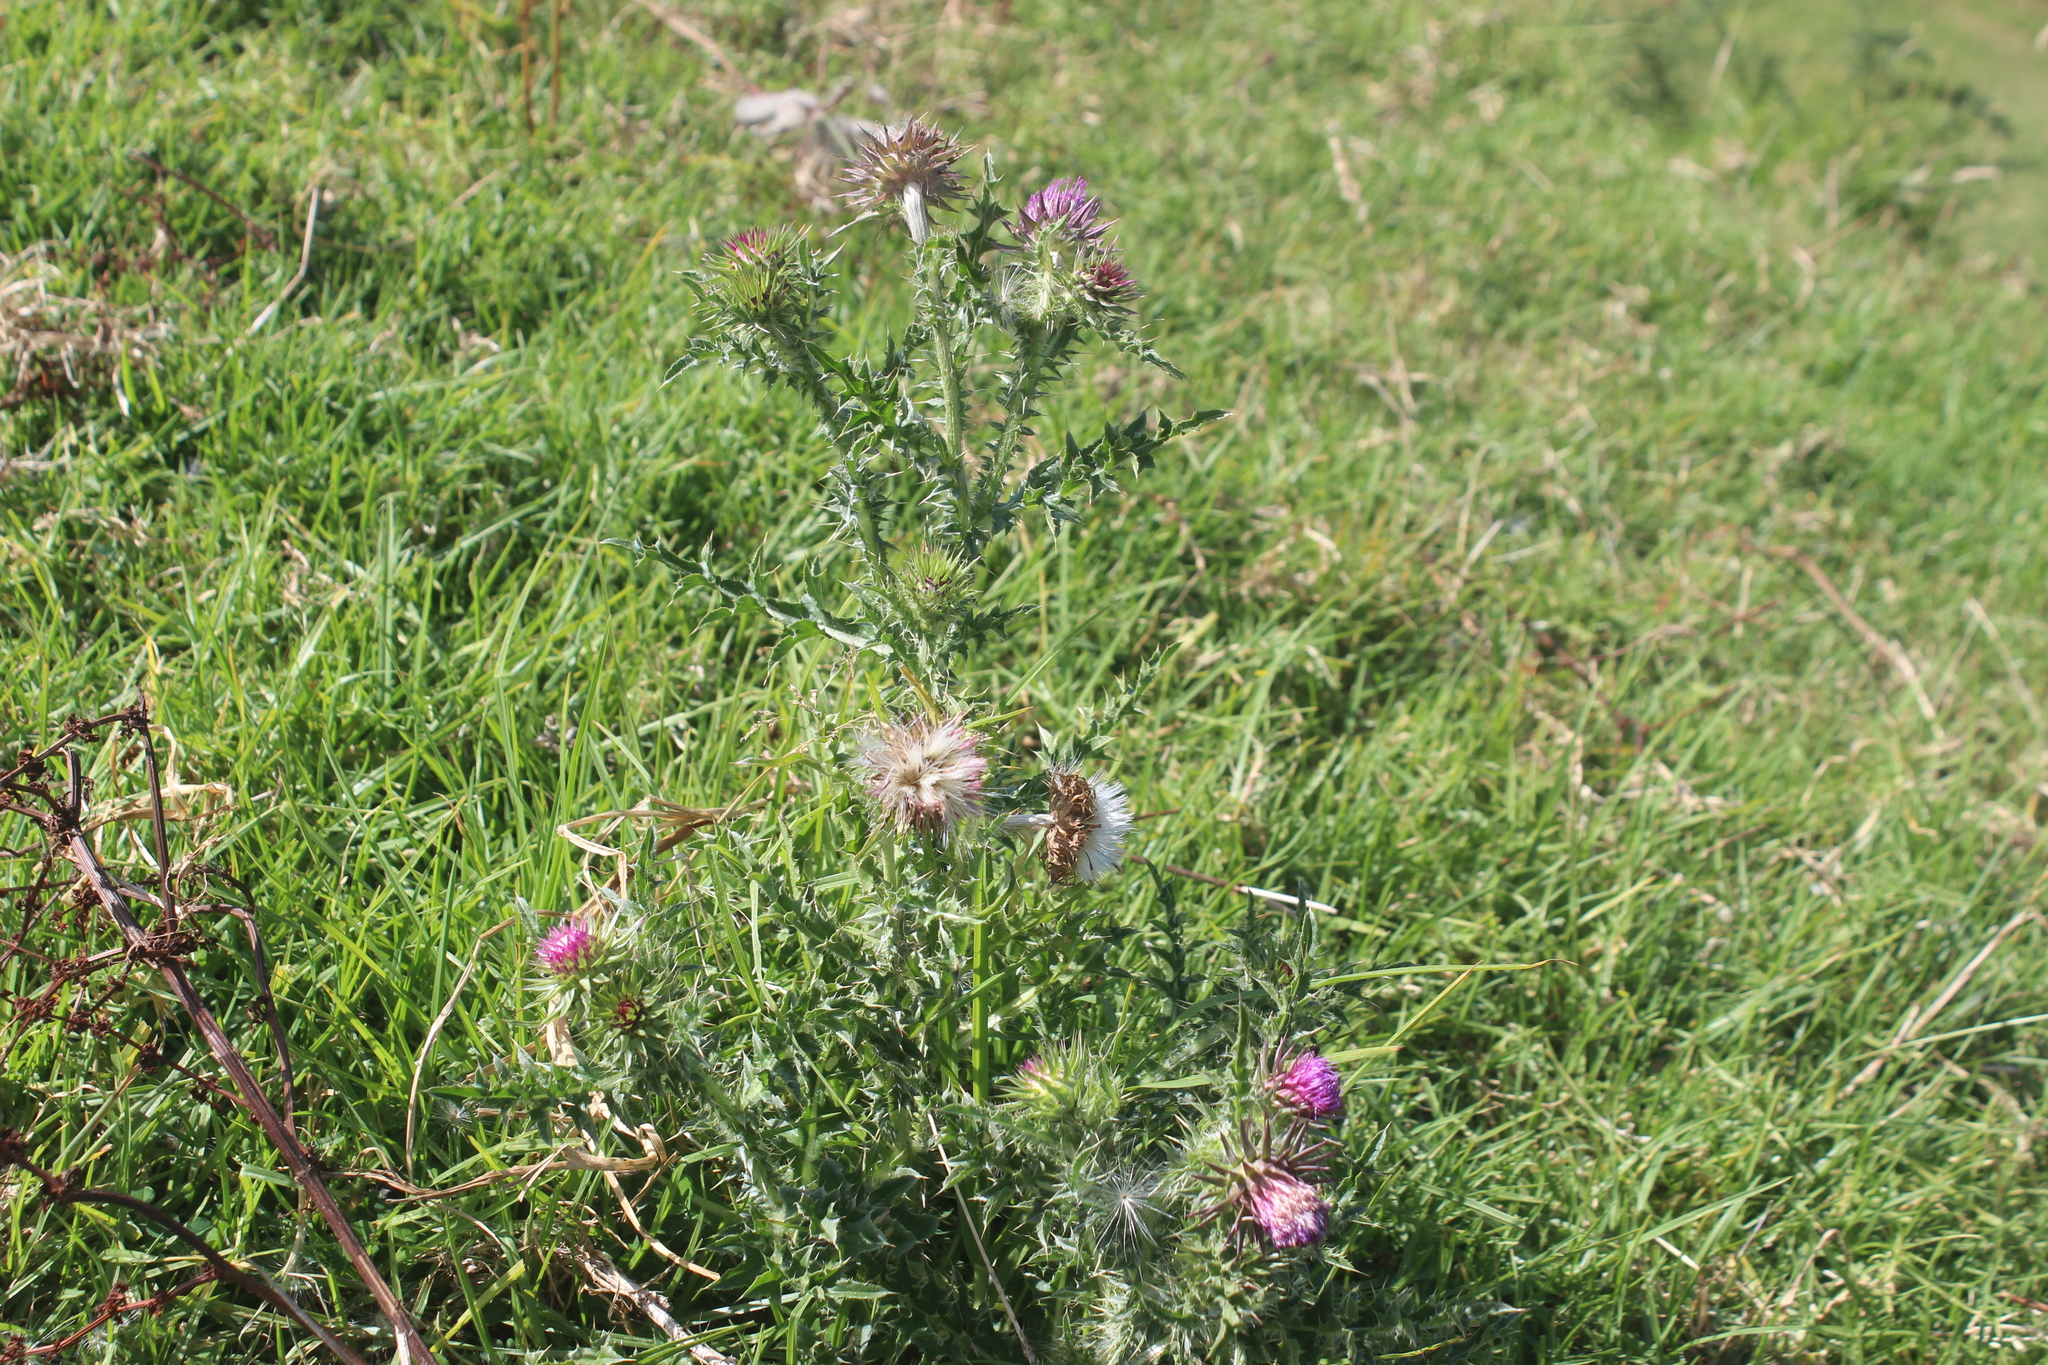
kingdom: Plantae
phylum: Tracheophyta
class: Magnoliopsida
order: Asterales
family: Asteraceae
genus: Carduus
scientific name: Carduus nutans
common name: Musk thistle
